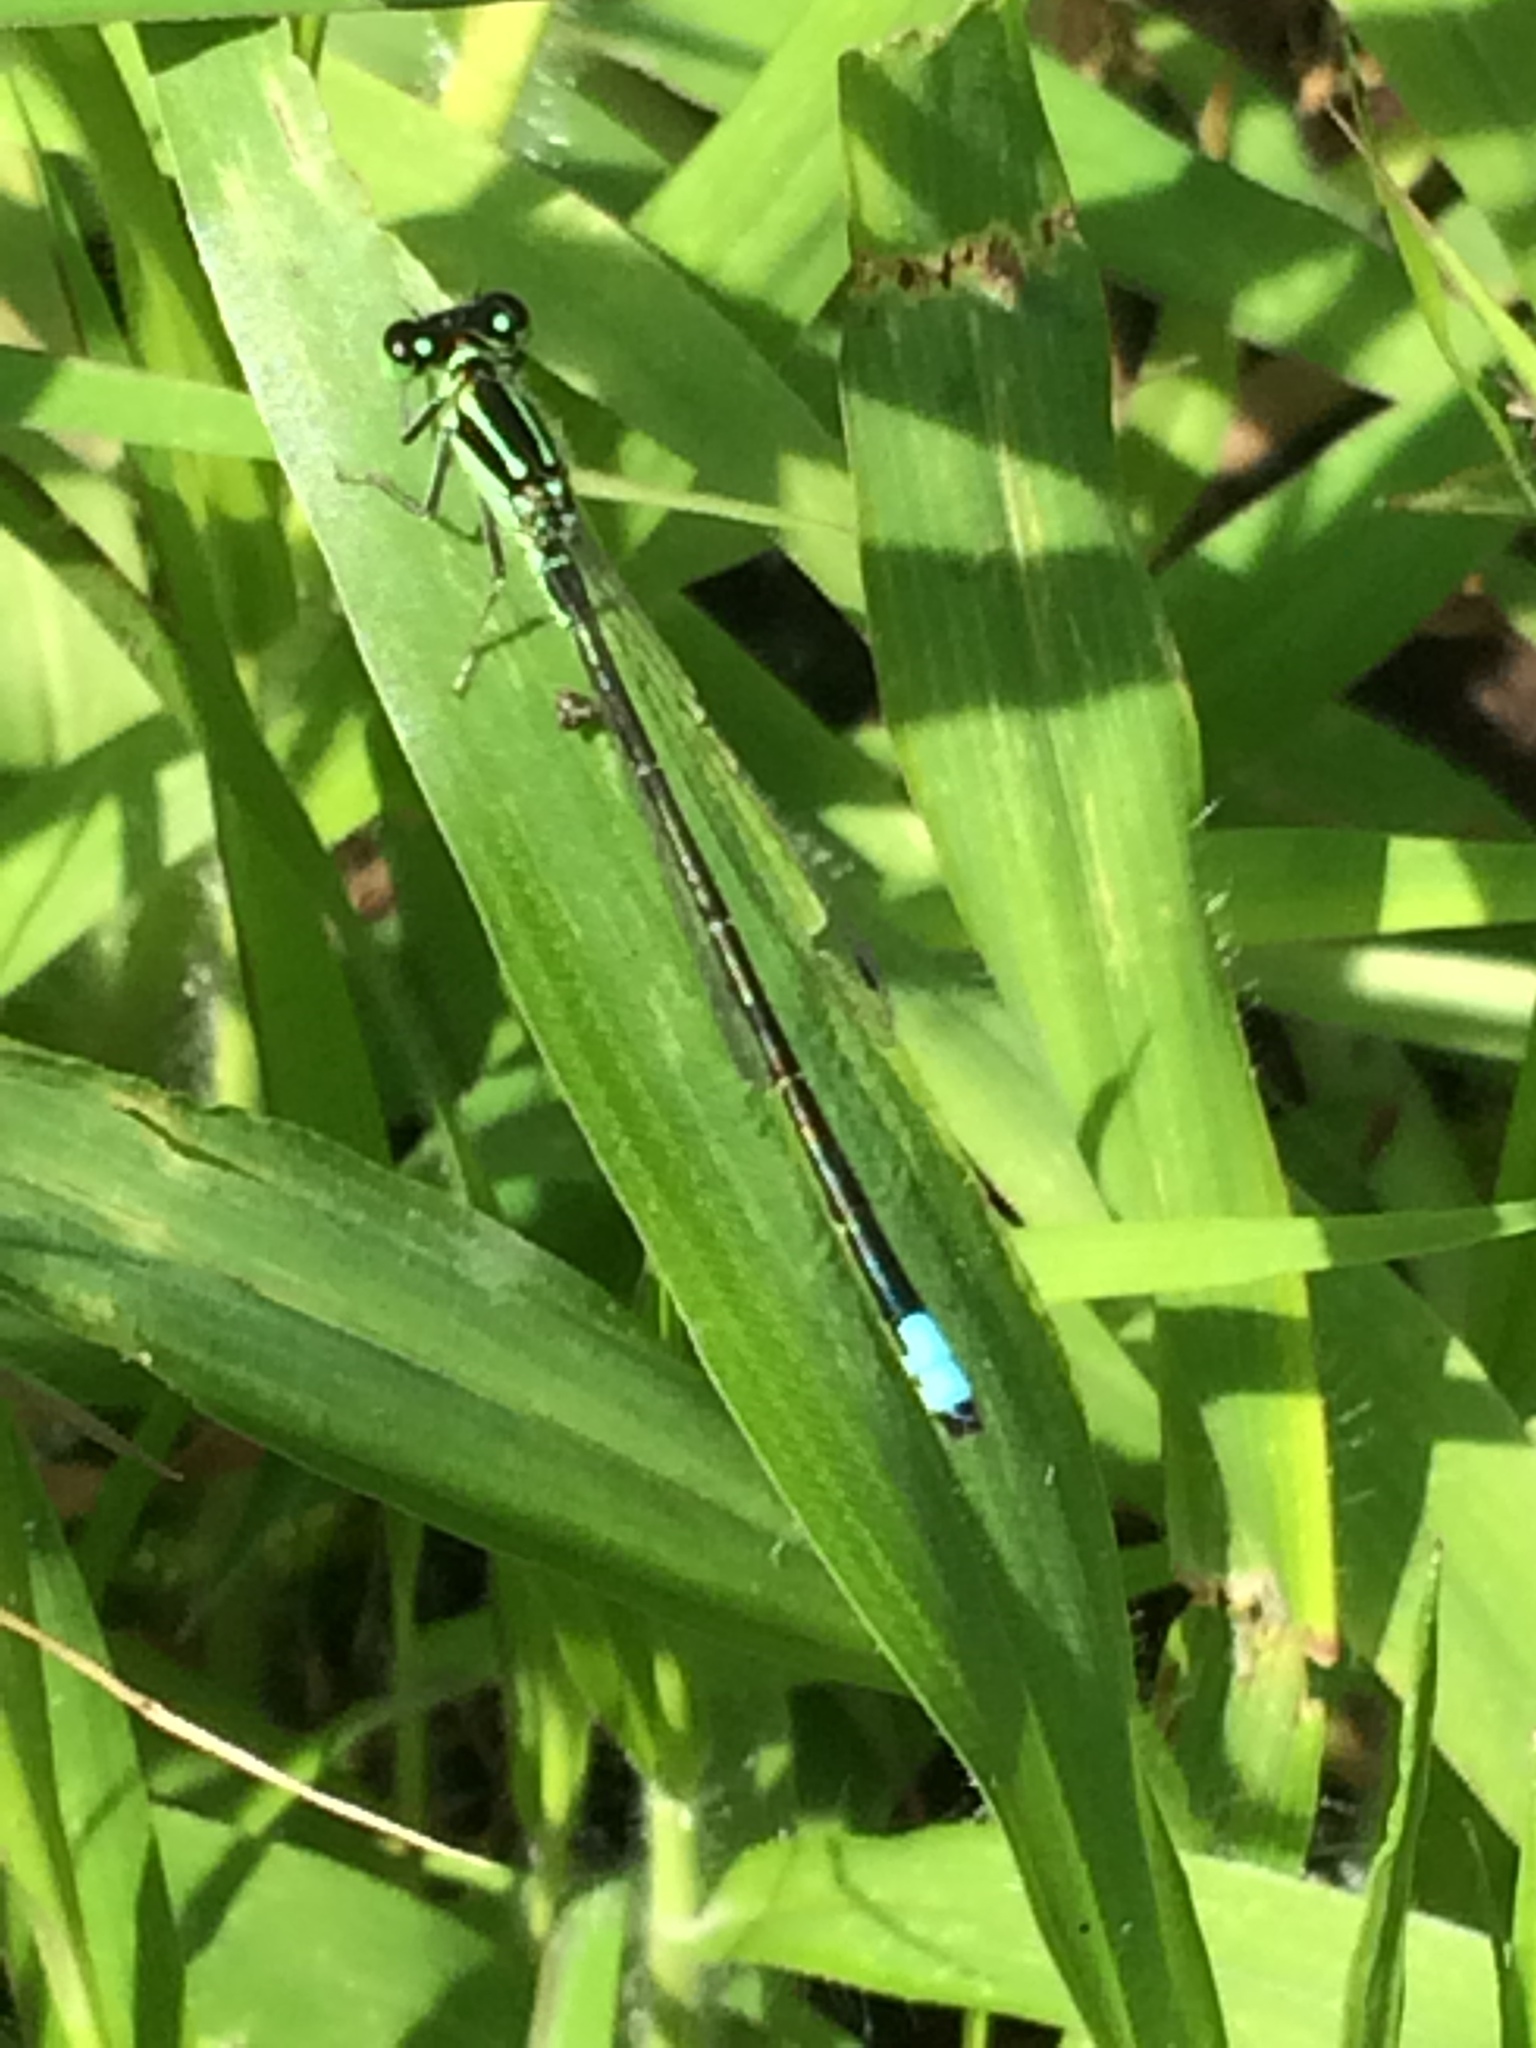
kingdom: Animalia
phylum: Arthropoda
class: Insecta
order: Odonata
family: Coenagrionidae
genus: Ischnura
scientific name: Ischnura verticalis
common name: Eastern forktail
